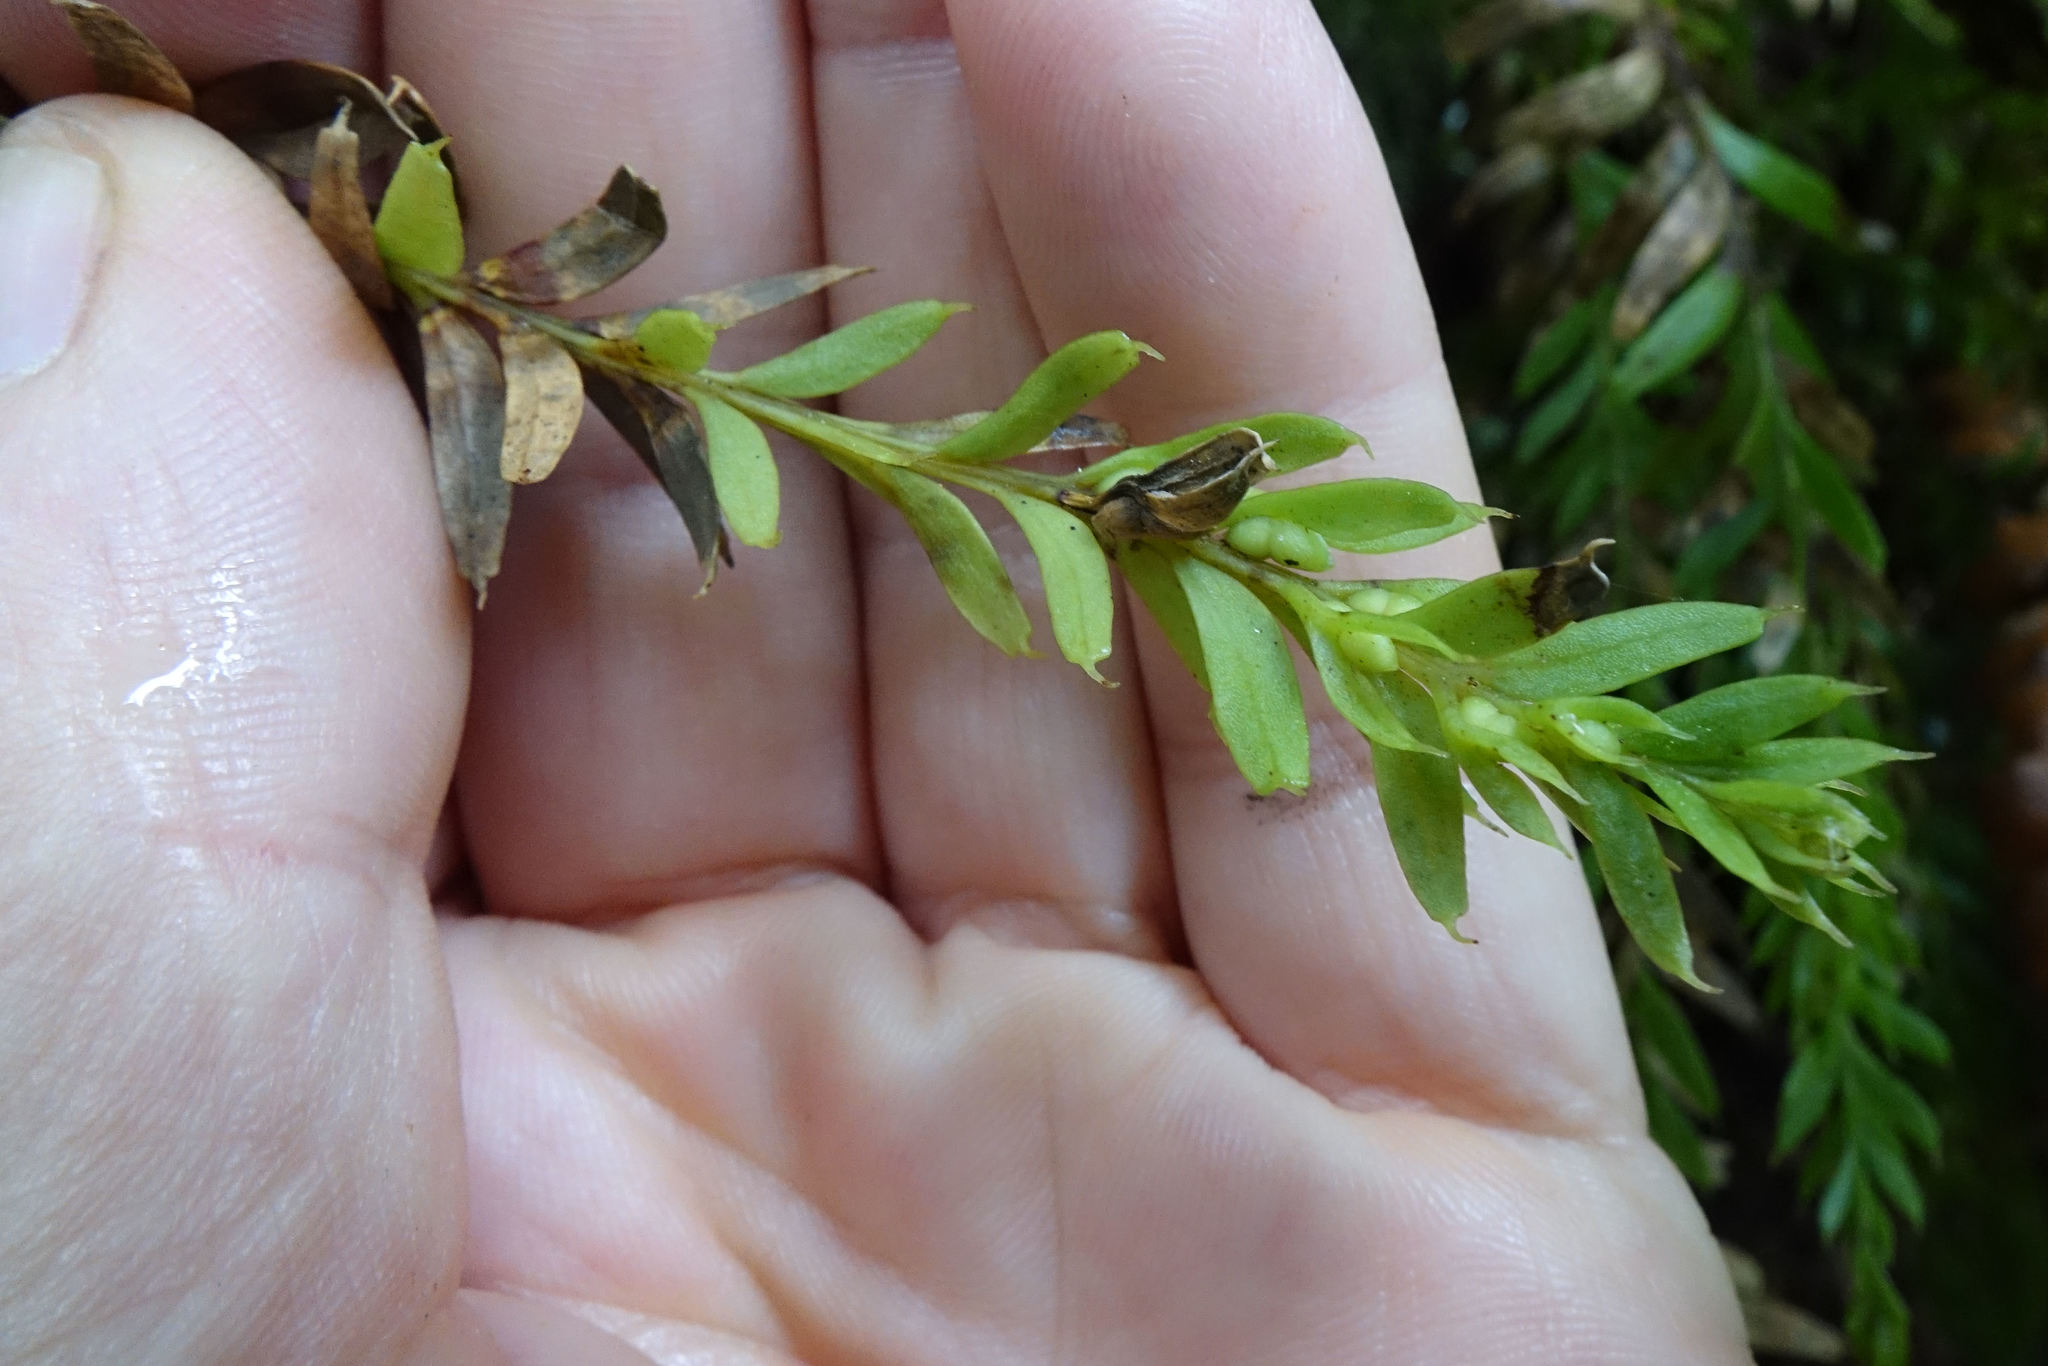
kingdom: Plantae
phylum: Tracheophyta
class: Polypodiopsida
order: Psilotales
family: Psilotaceae
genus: Tmesipteris
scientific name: Tmesipteris tannensis
